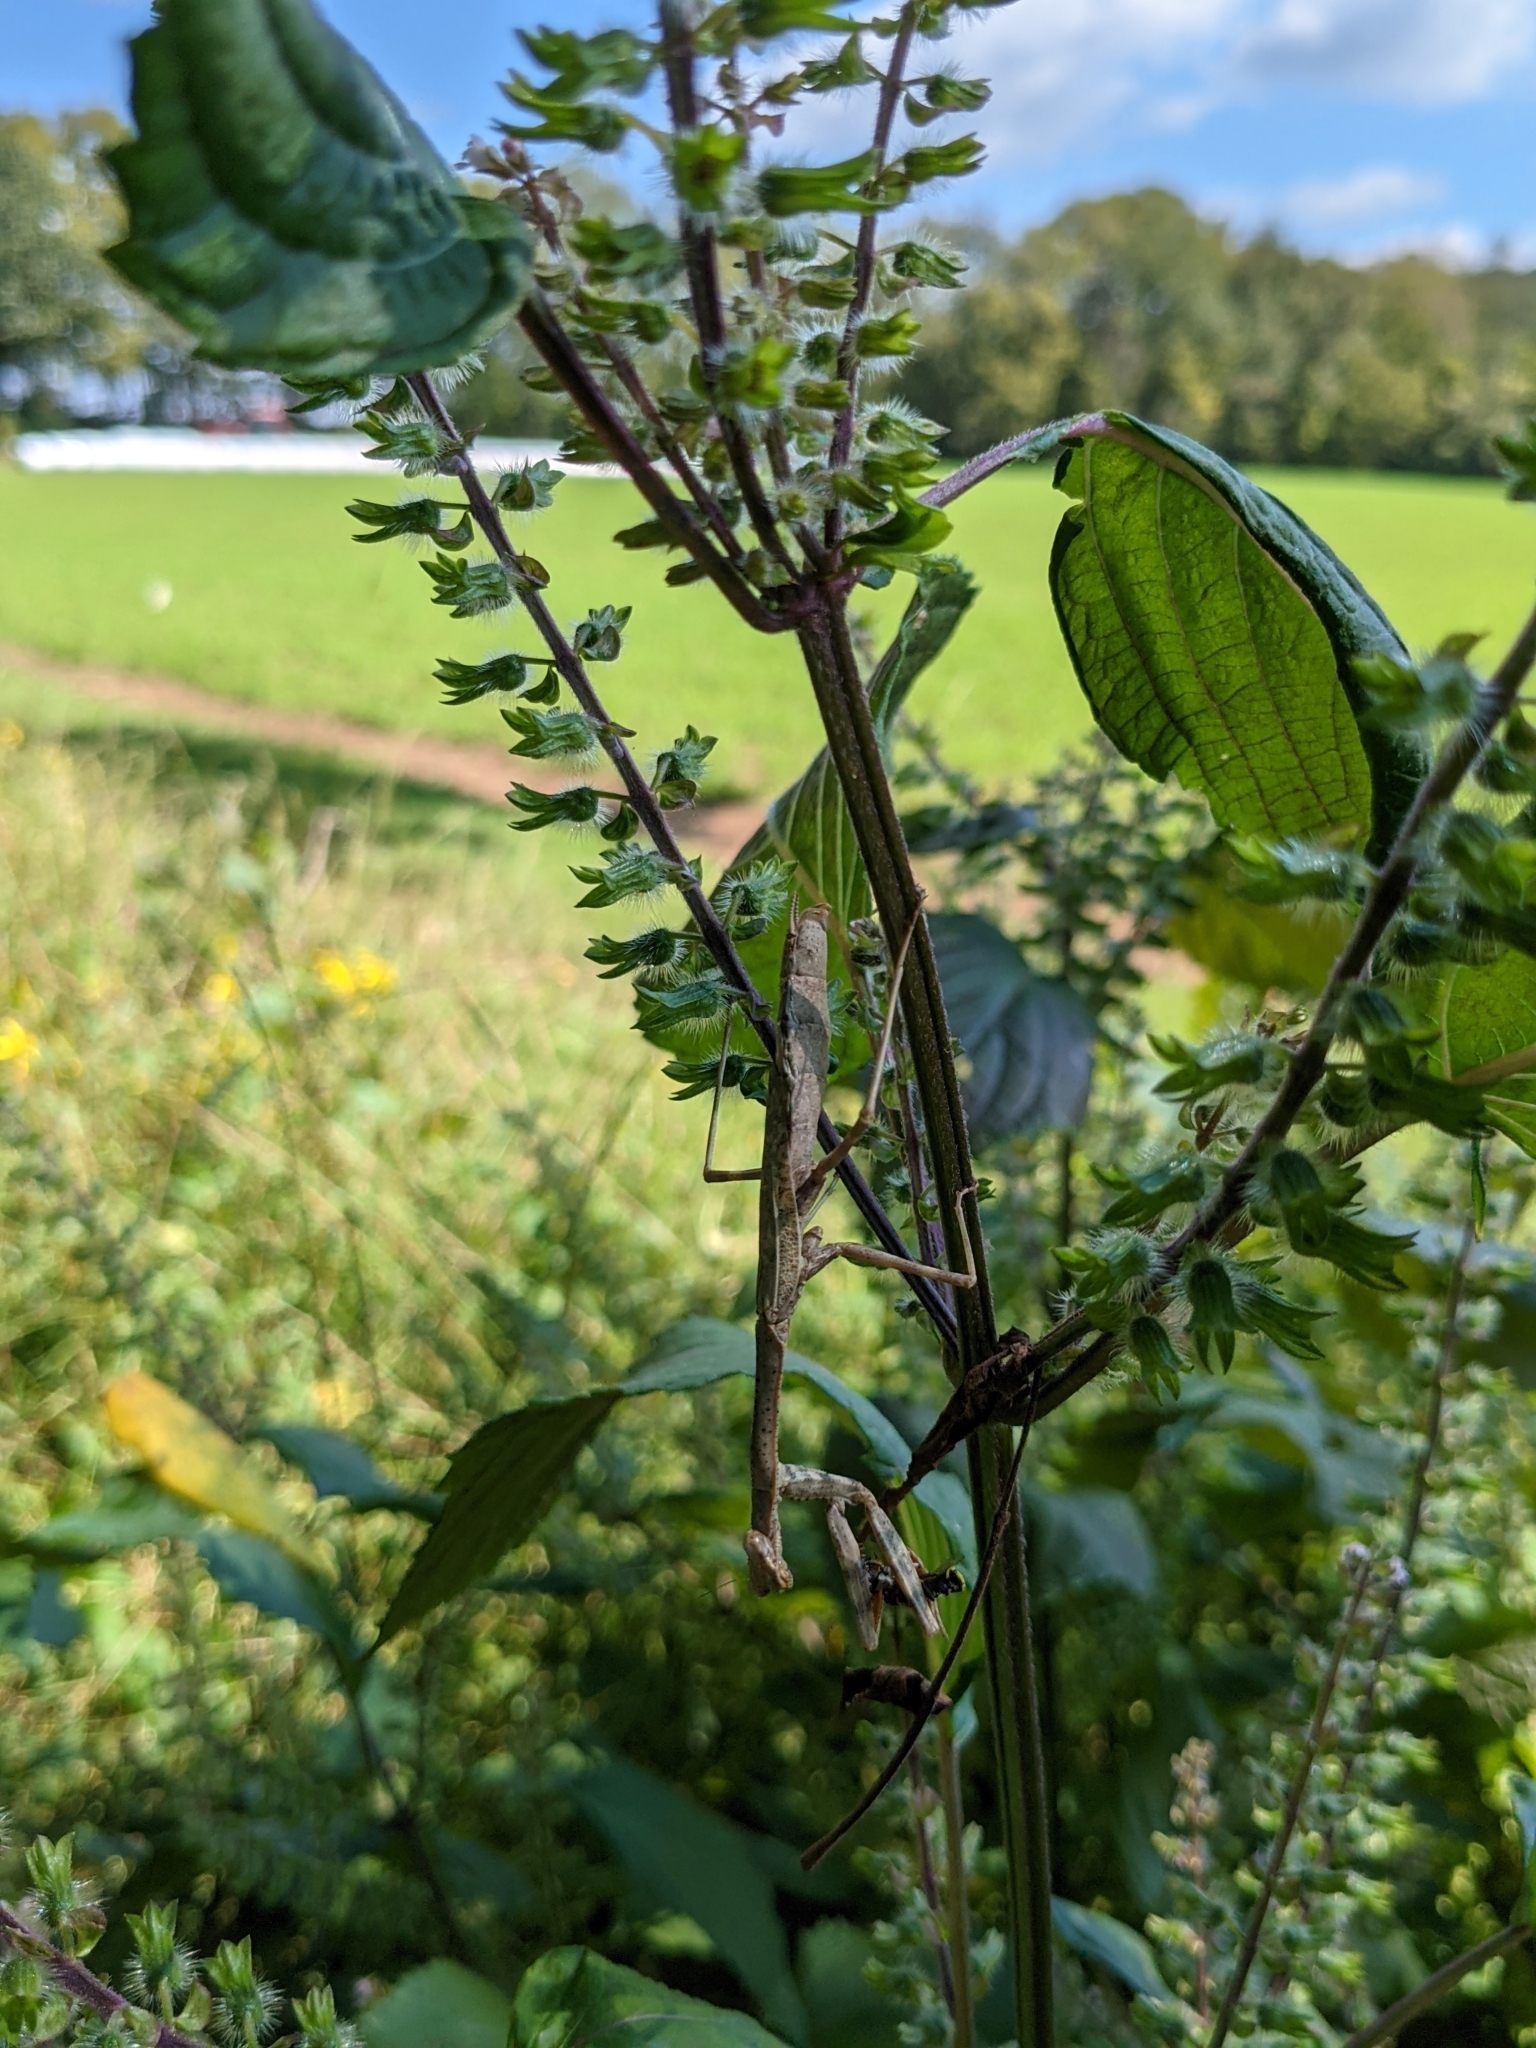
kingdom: Animalia
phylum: Arthropoda
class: Insecta
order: Mantodea
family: Mantidae
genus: Stagmomantis
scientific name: Stagmomantis carolina
